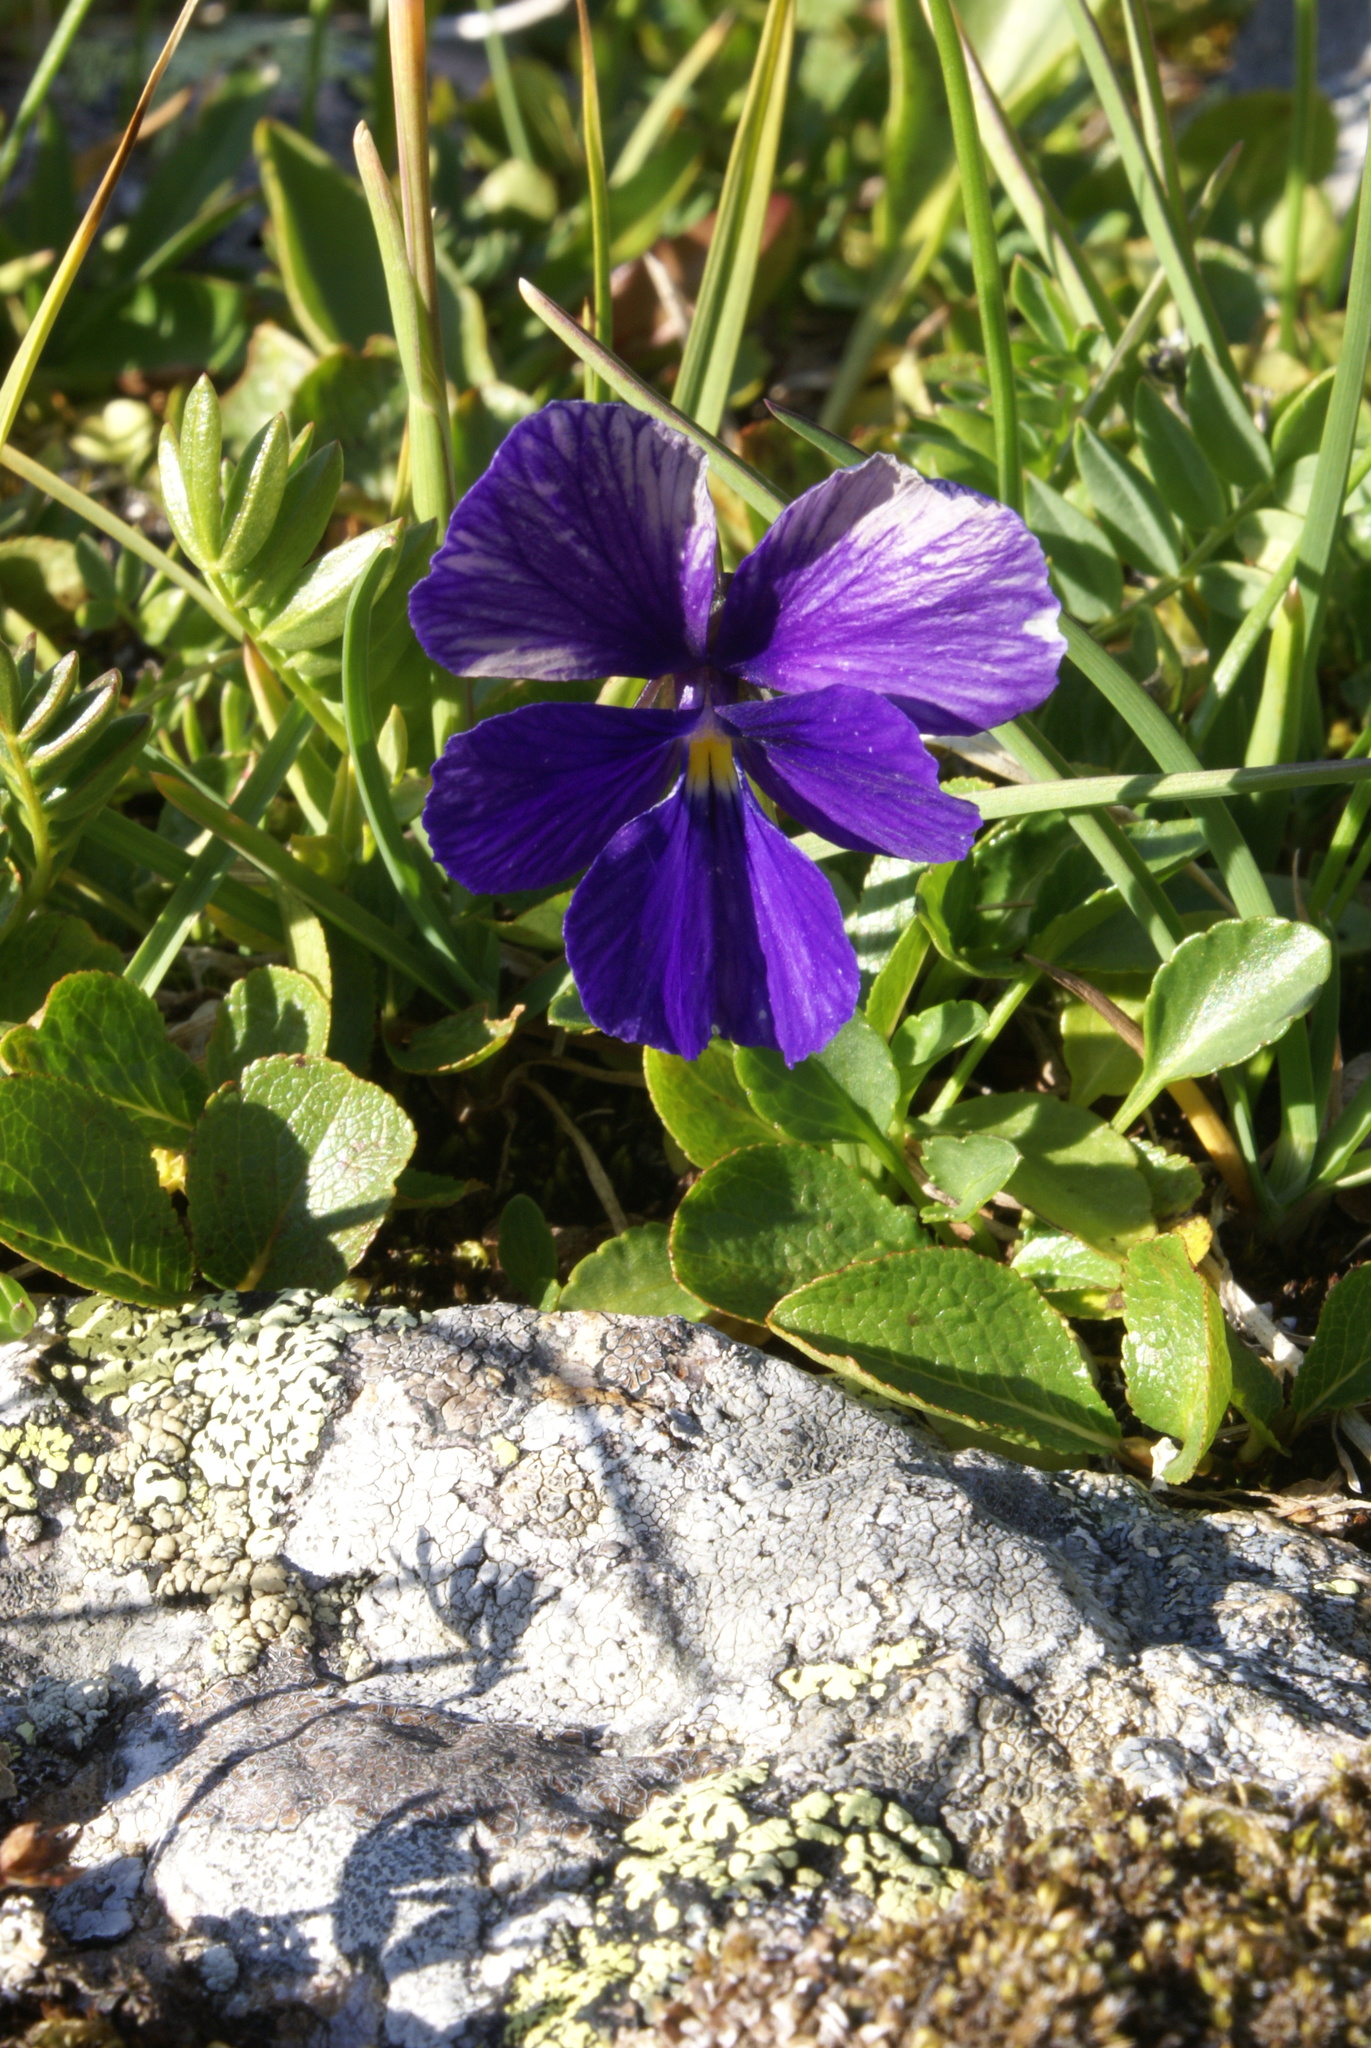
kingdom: Plantae
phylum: Tracheophyta
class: Magnoliopsida
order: Malpighiales
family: Violaceae
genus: Viola
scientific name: Viola altaica
